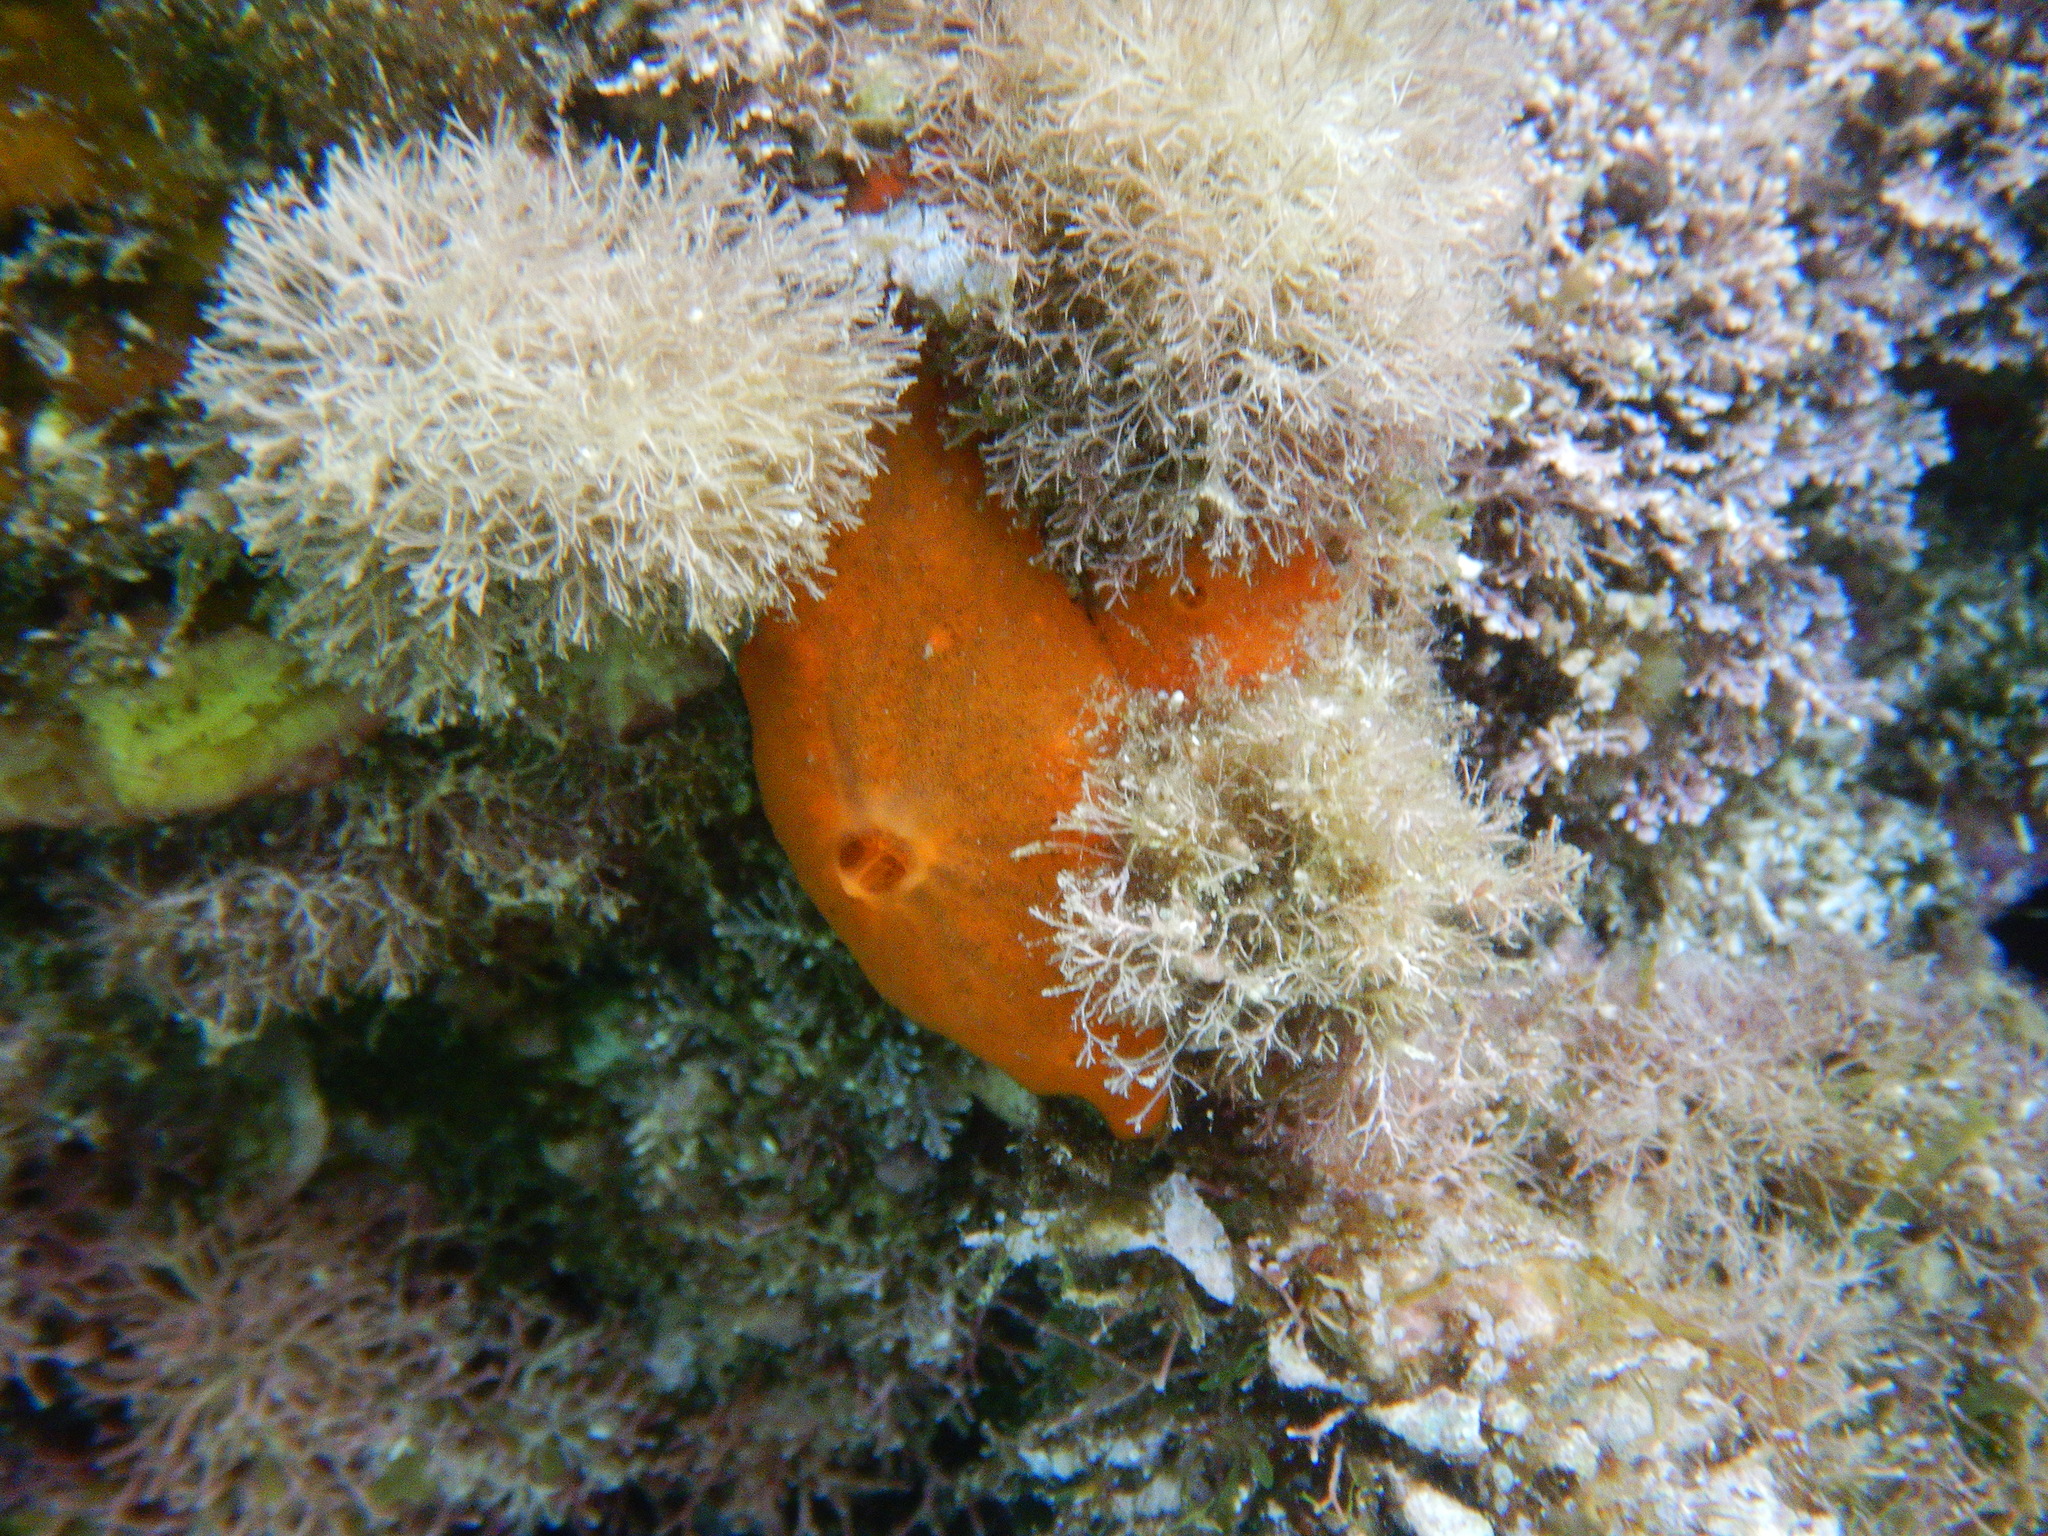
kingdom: Animalia
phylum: Porifera
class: Demospongiae
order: Poecilosclerida
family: Crambeidae
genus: Crambe
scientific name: Crambe crambe
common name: Orange-red encrusting sponge
